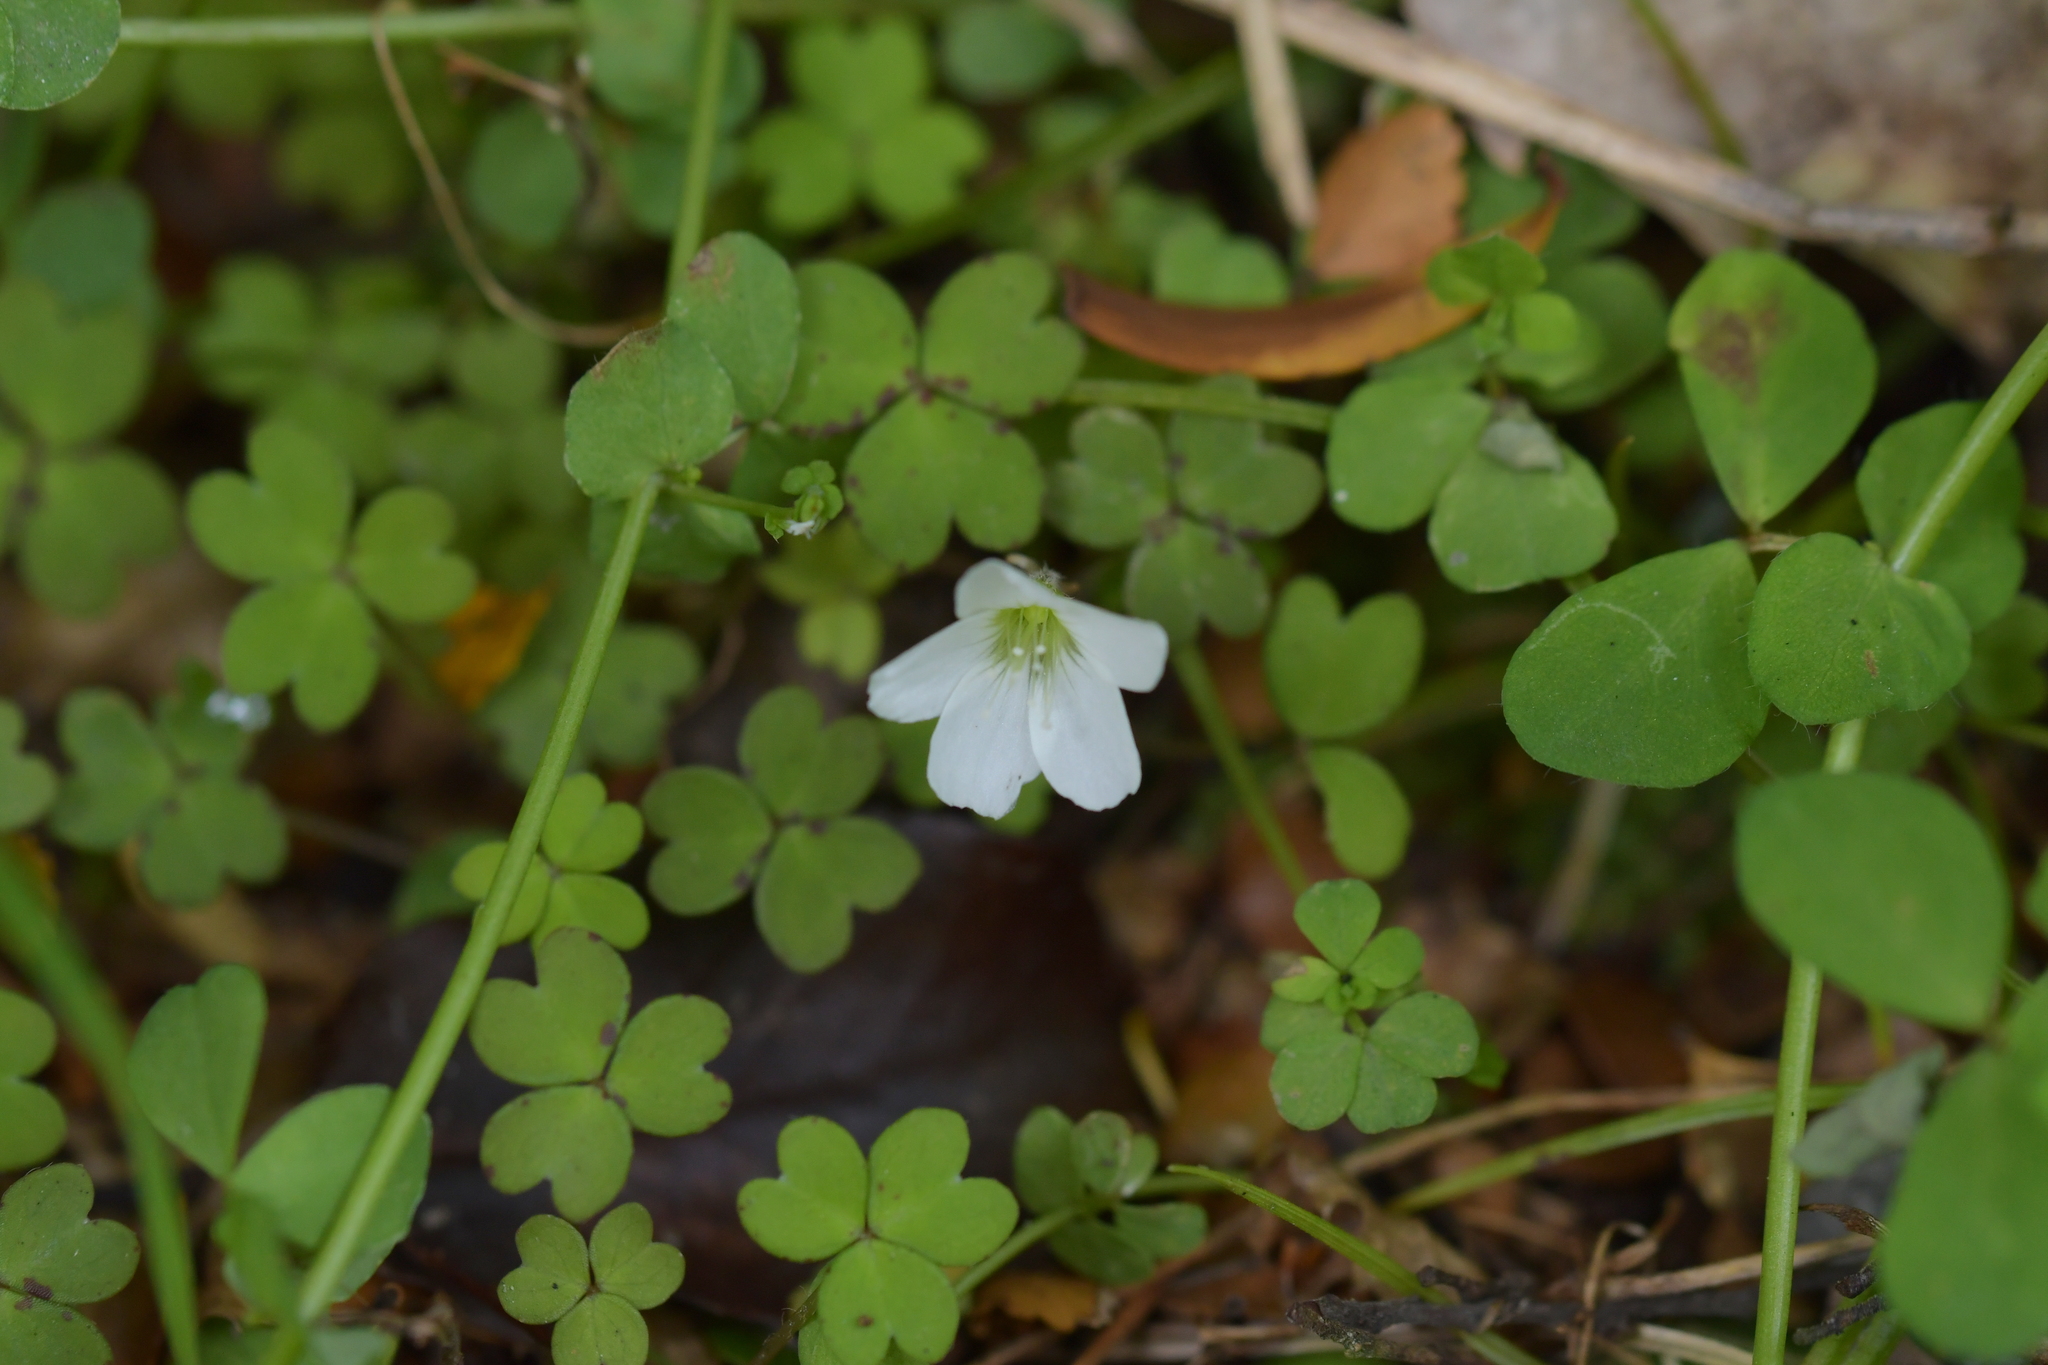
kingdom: Plantae
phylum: Tracheophyta
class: Magnoliopsida
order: Oxalidales
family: Oxalidaceae
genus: Oxalis
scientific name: Oxalis magellanica
